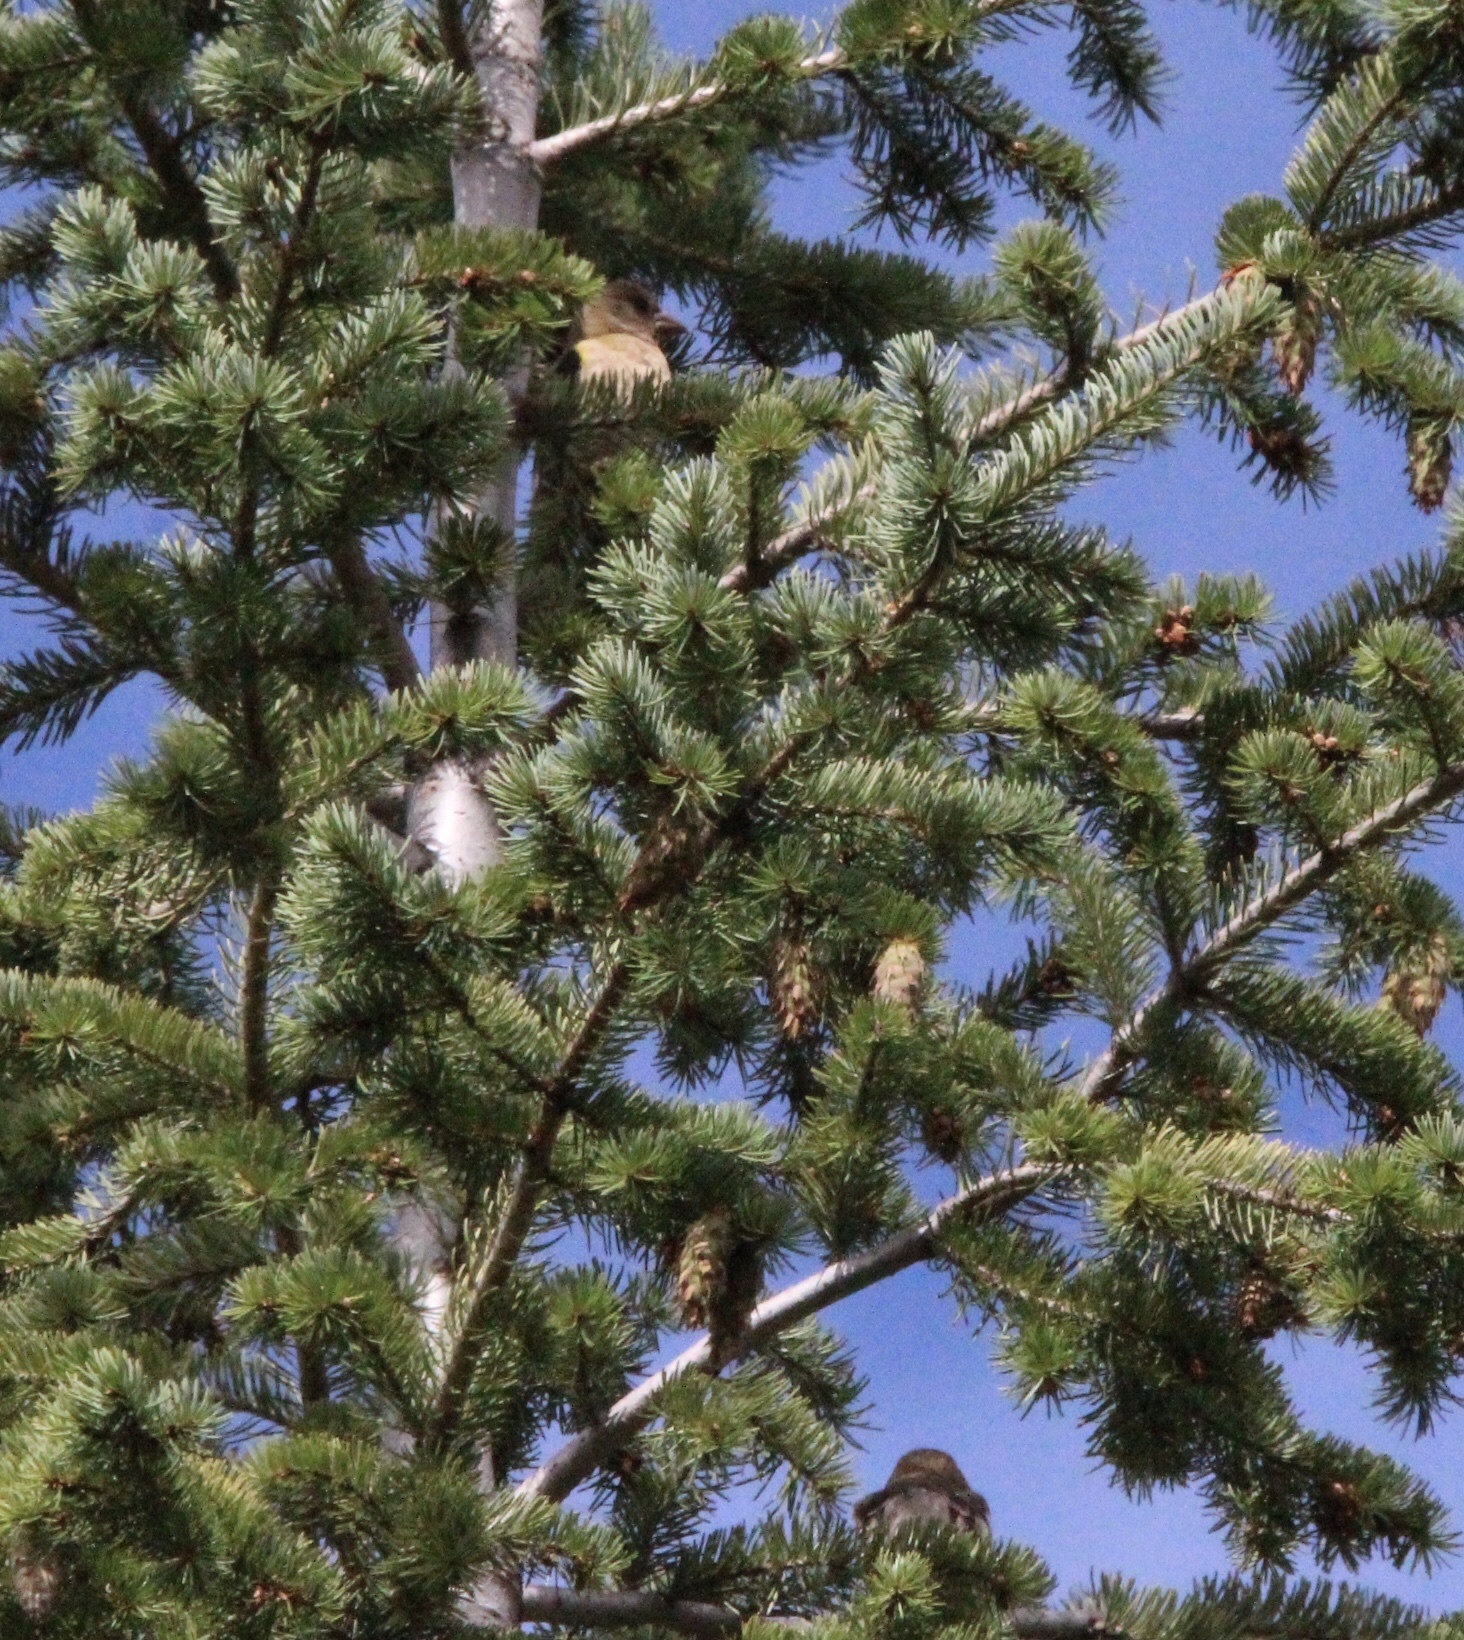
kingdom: Animalia
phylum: Chordata
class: Aves
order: Passeriformes
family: Fringillidae
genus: Hesperiphona
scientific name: Hesperiphona vespertina
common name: Evening grosbeak
